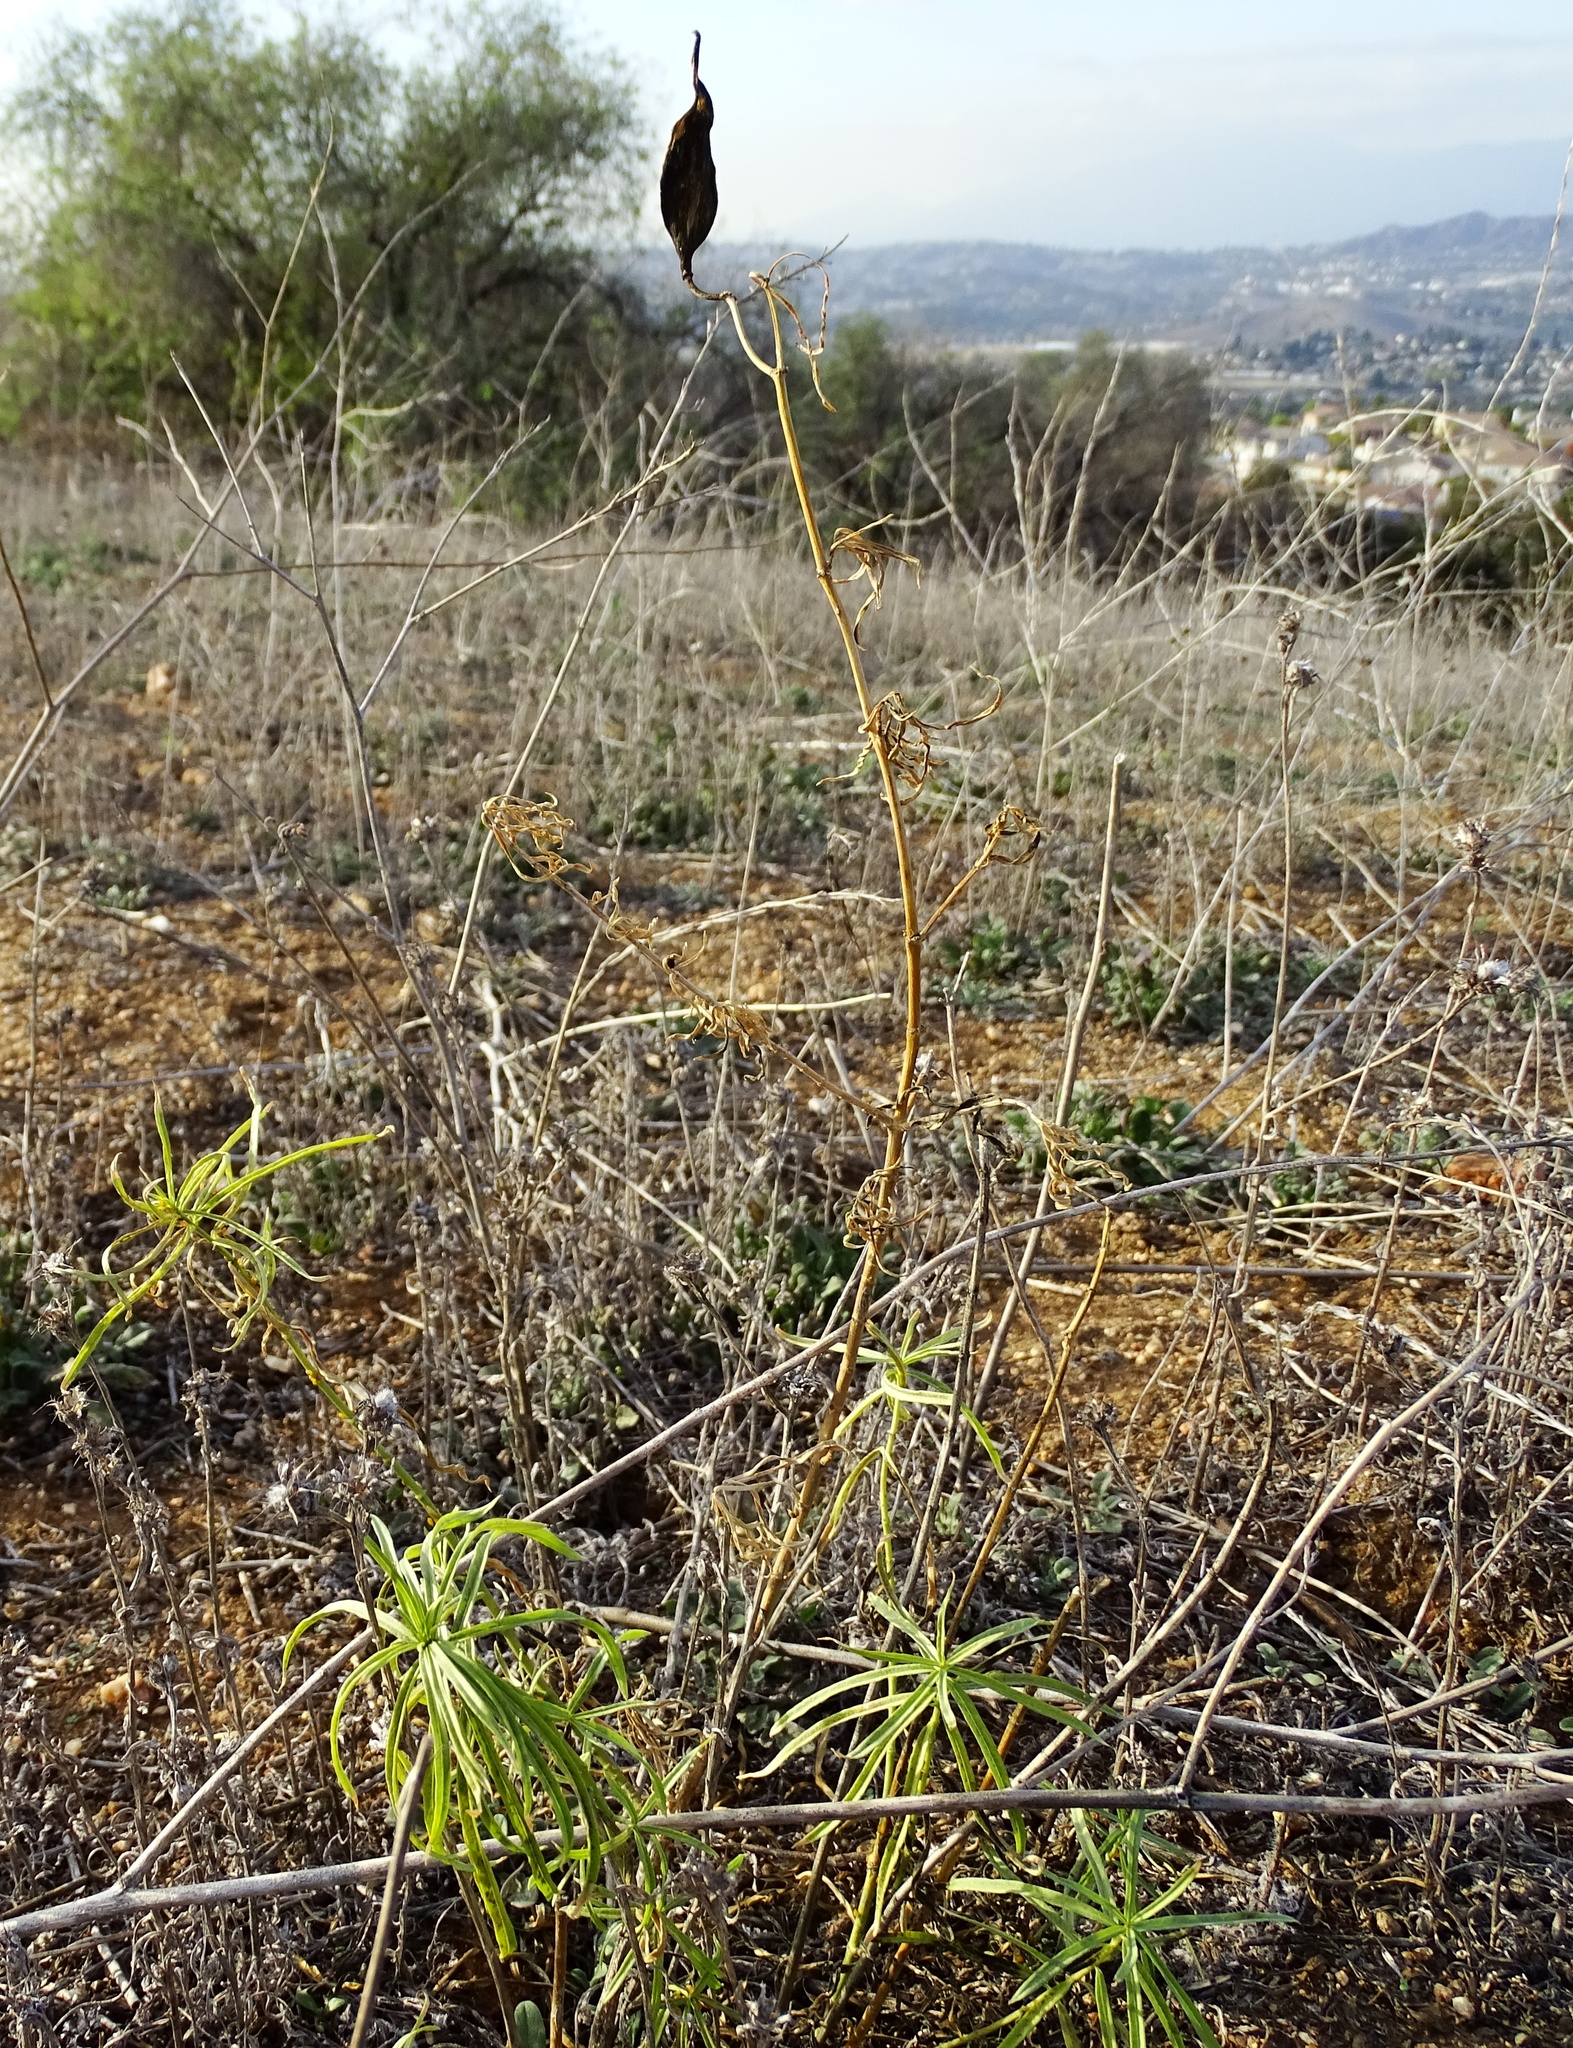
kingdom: Plantae
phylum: Tracheophyta
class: Magnoliopsida
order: Gentianales
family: Apocynaceae
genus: Asclepias
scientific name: Asclepias fascicularis
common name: Mexican milkweed
